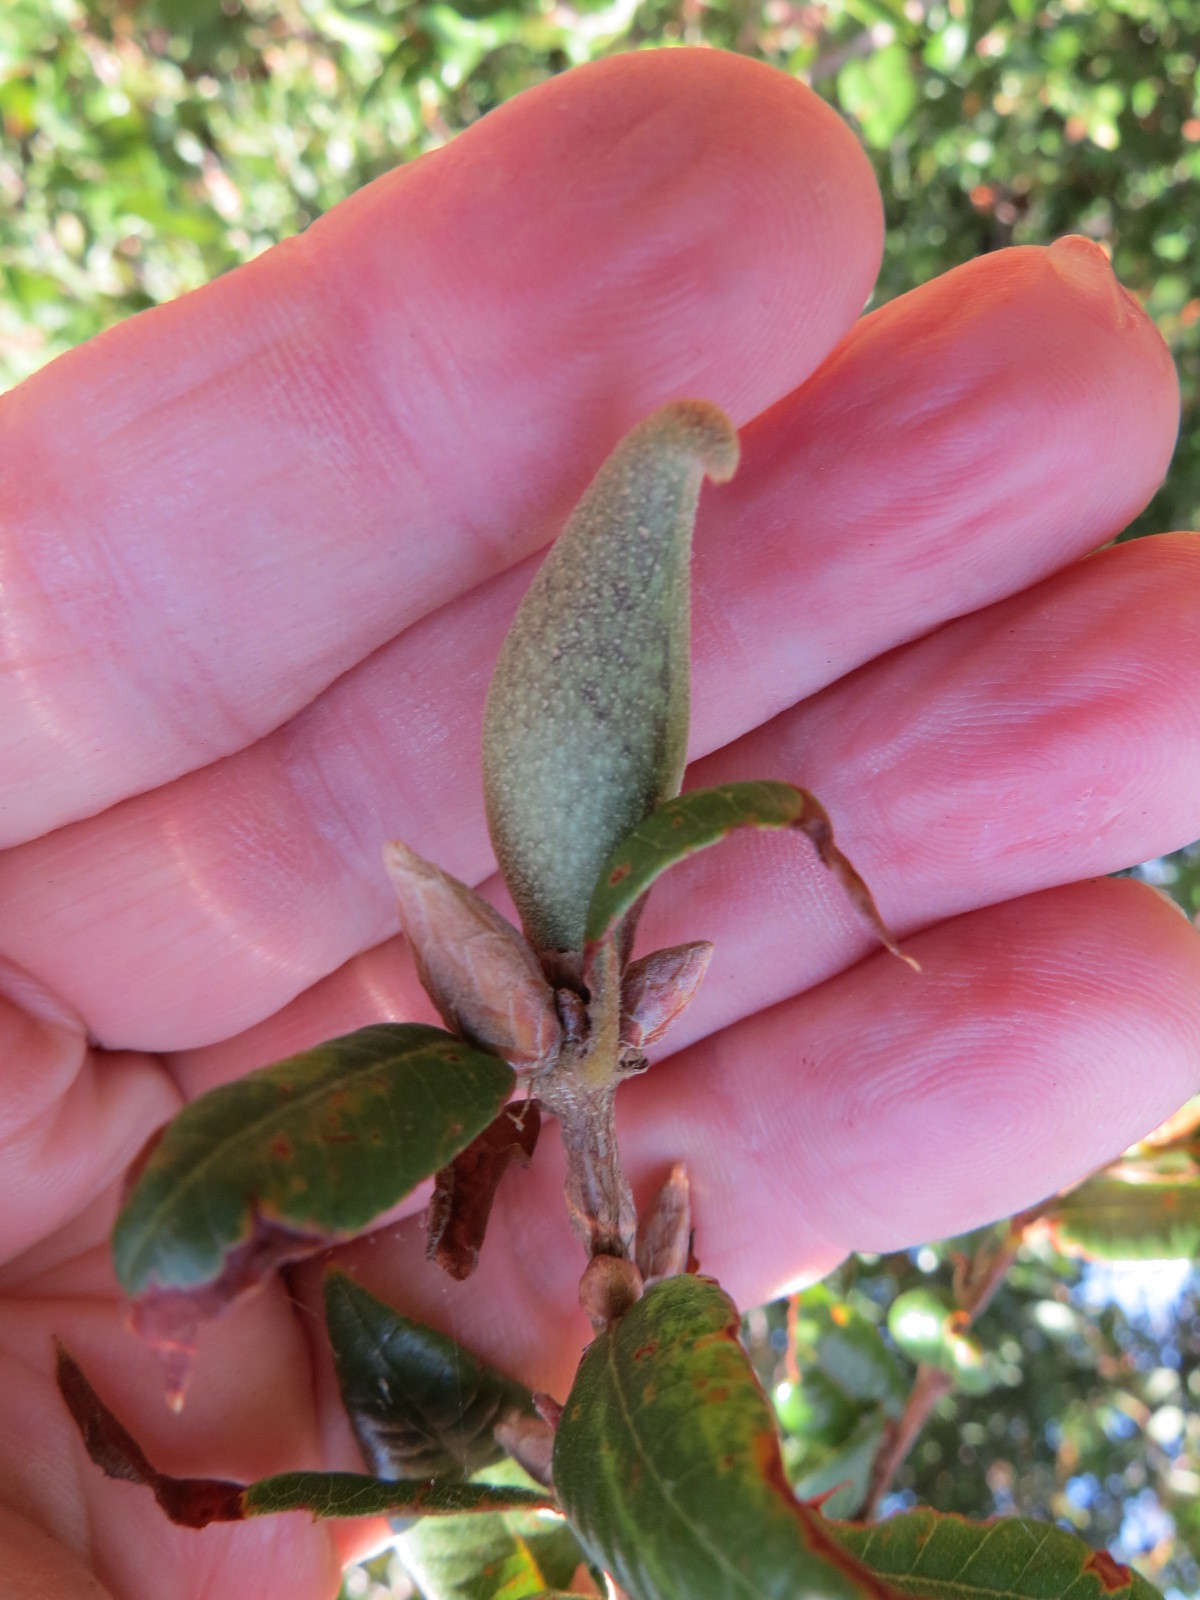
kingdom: Animalia
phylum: Arthropoda
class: Insecta
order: Hymenoptera
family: Cynipidae
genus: Heteroecus
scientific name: Heteroecus pacificus
